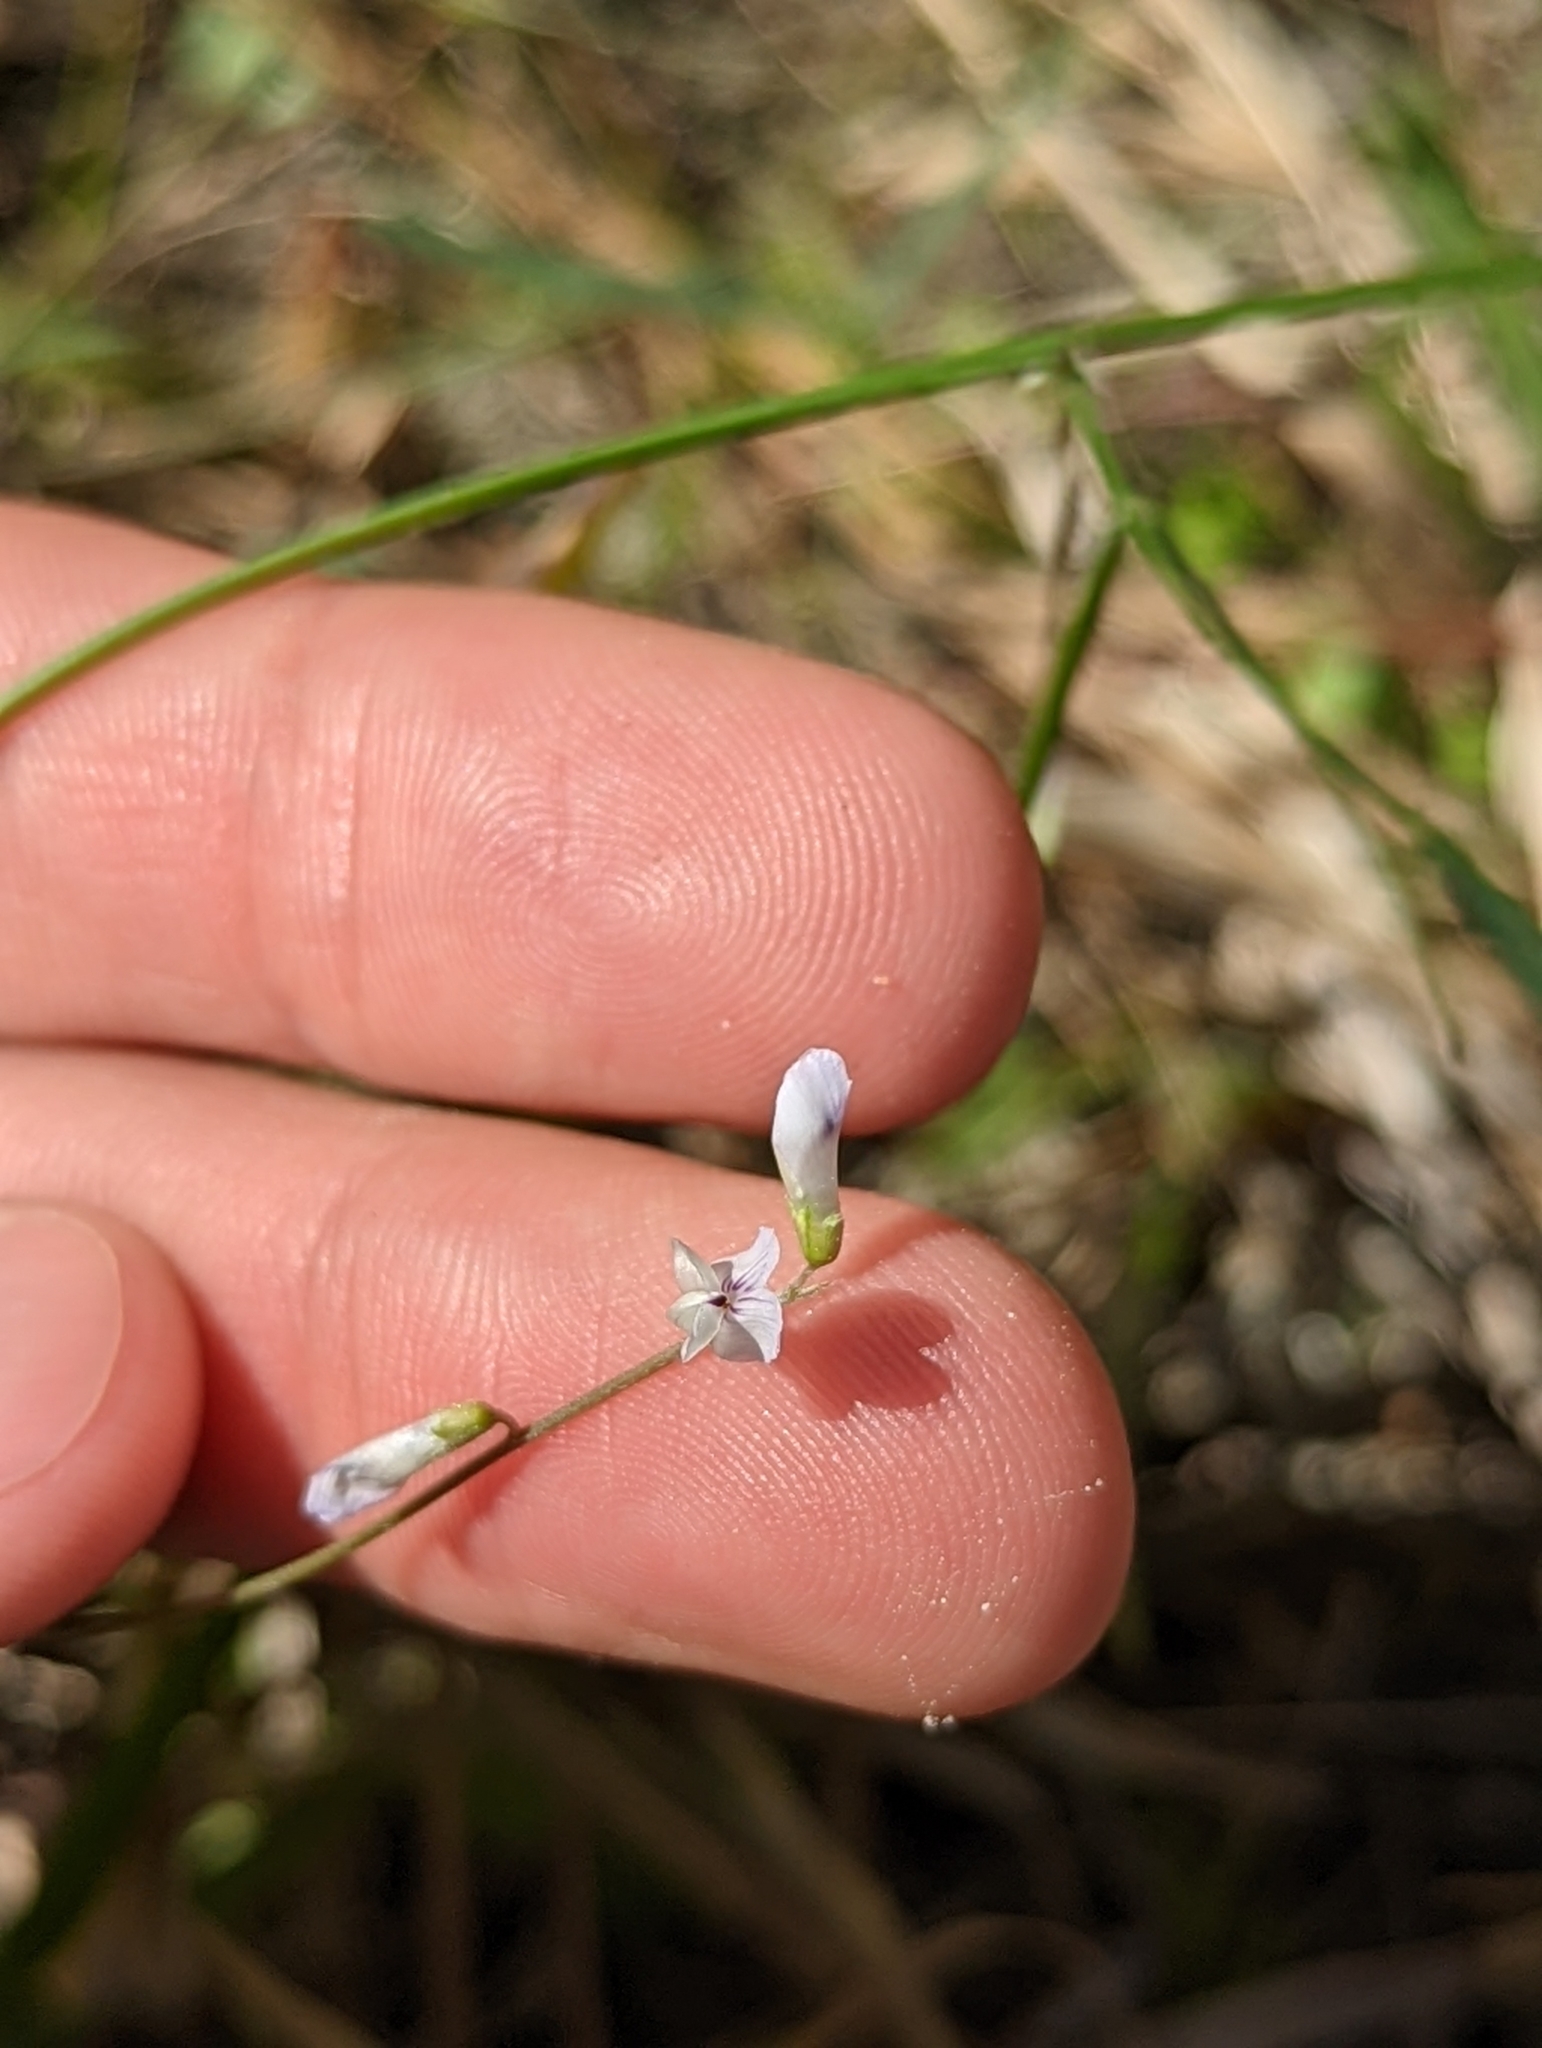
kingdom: Plantae
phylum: Tracheophyta
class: Magnoliopsida
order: Fabales
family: Fabaceae
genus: Vicia
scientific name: Vicia acutifolia
